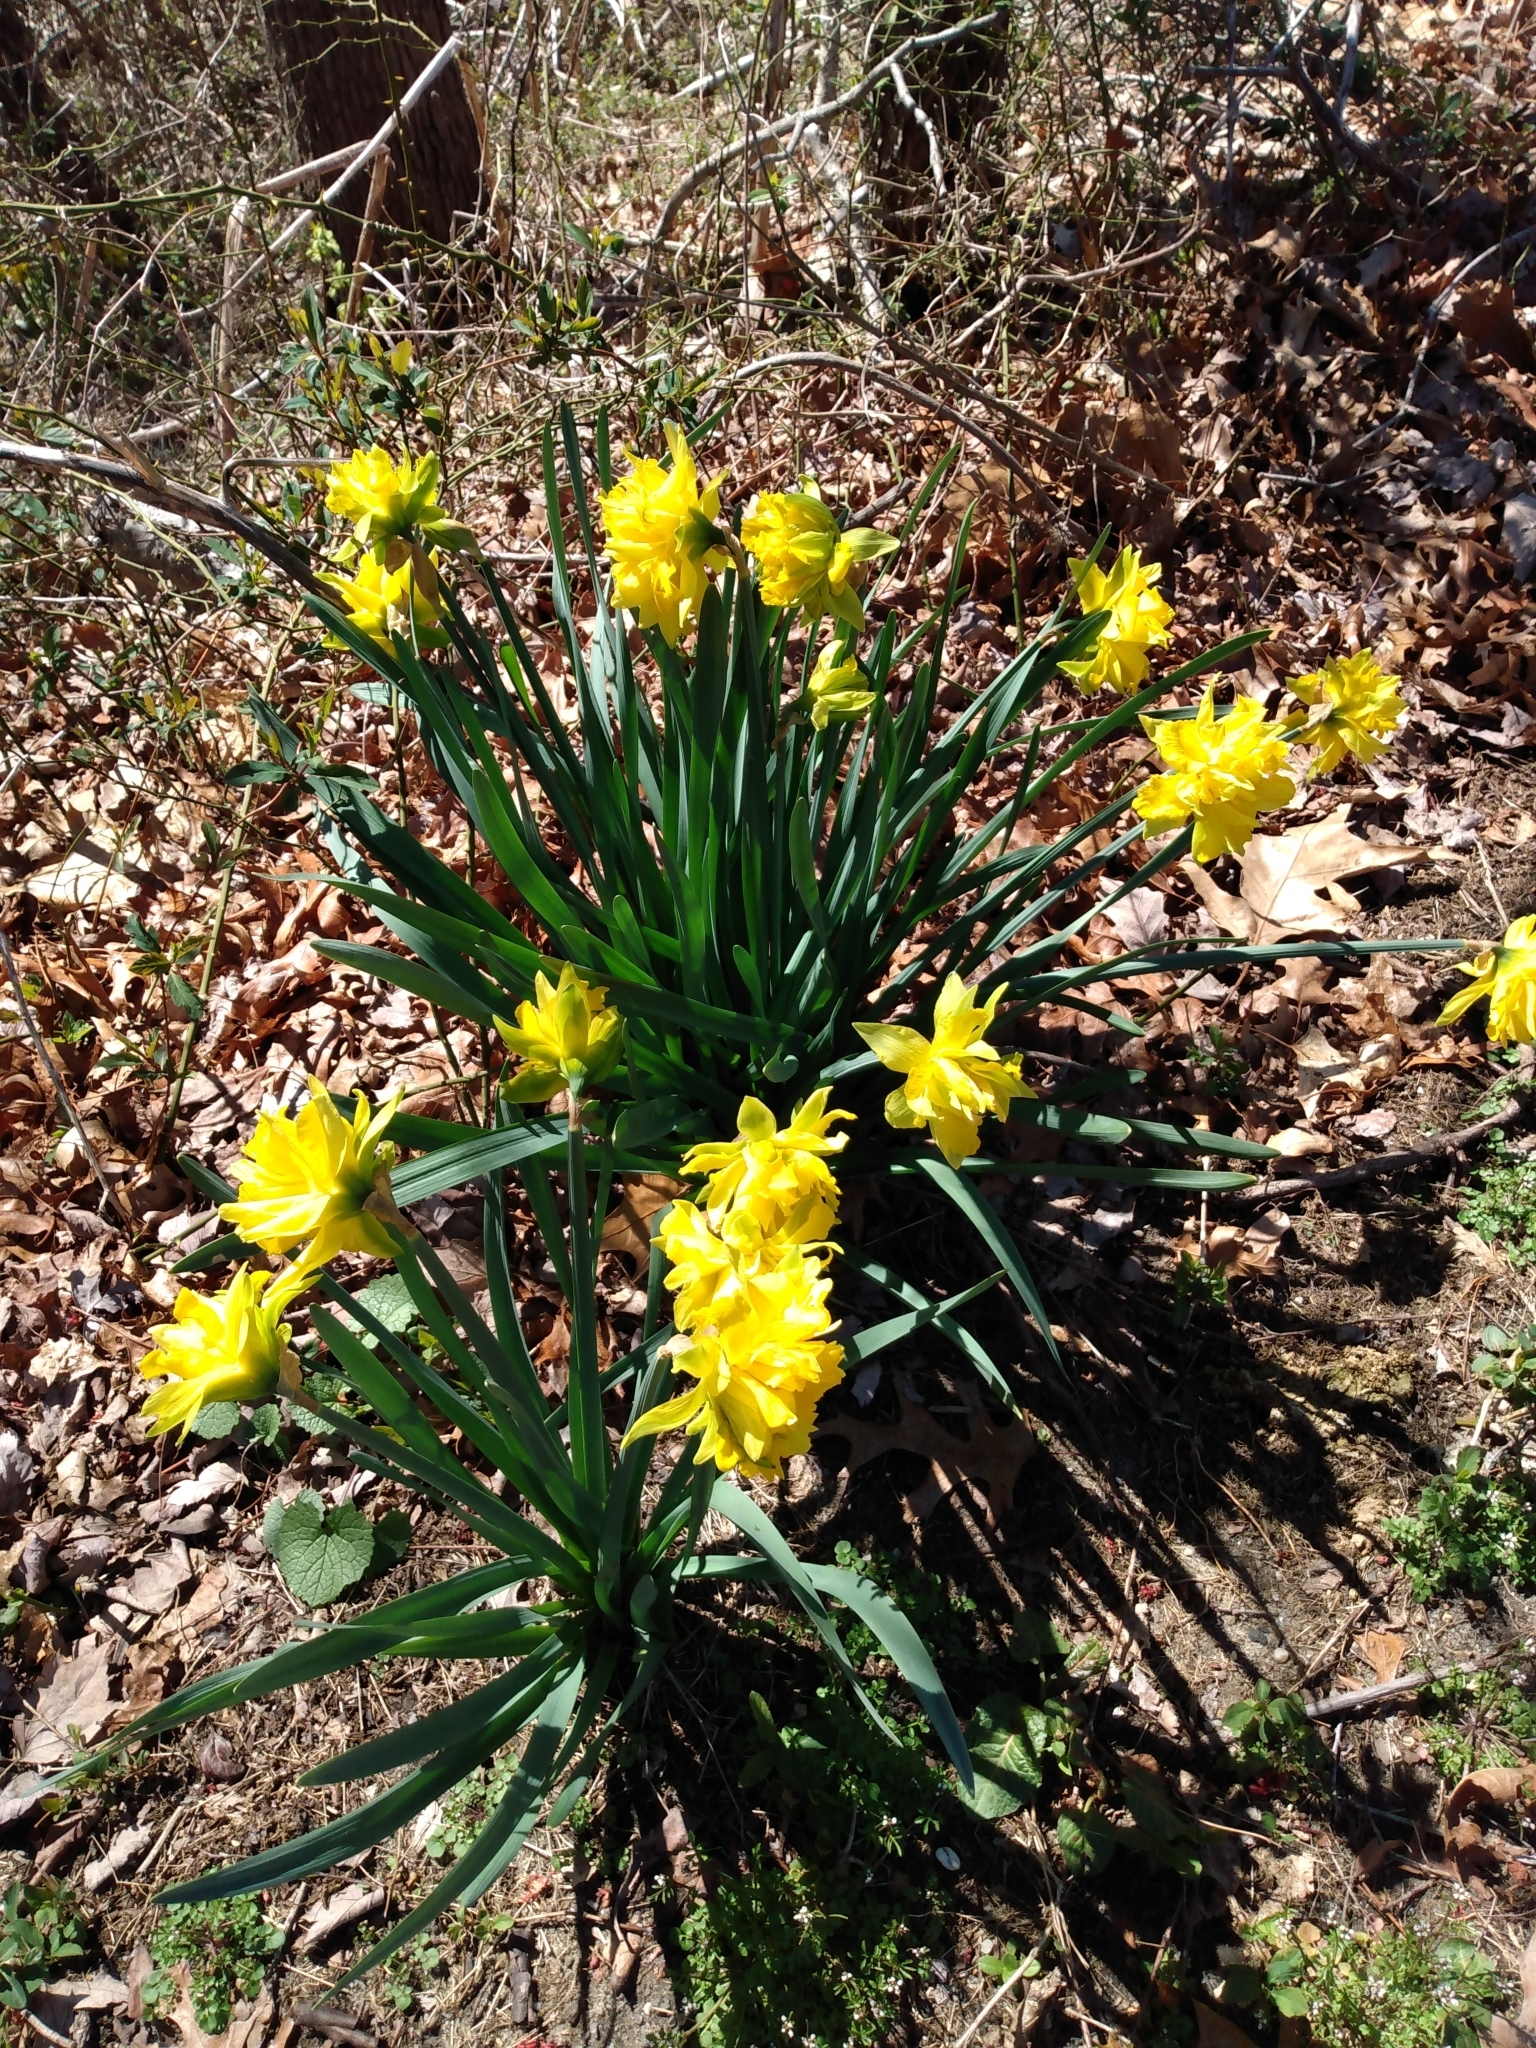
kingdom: Plantae
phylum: Tracheophyta
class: Liliopsida
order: Asparagales
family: Amaryllidaceae
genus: Narcissus
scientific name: Narcissus
